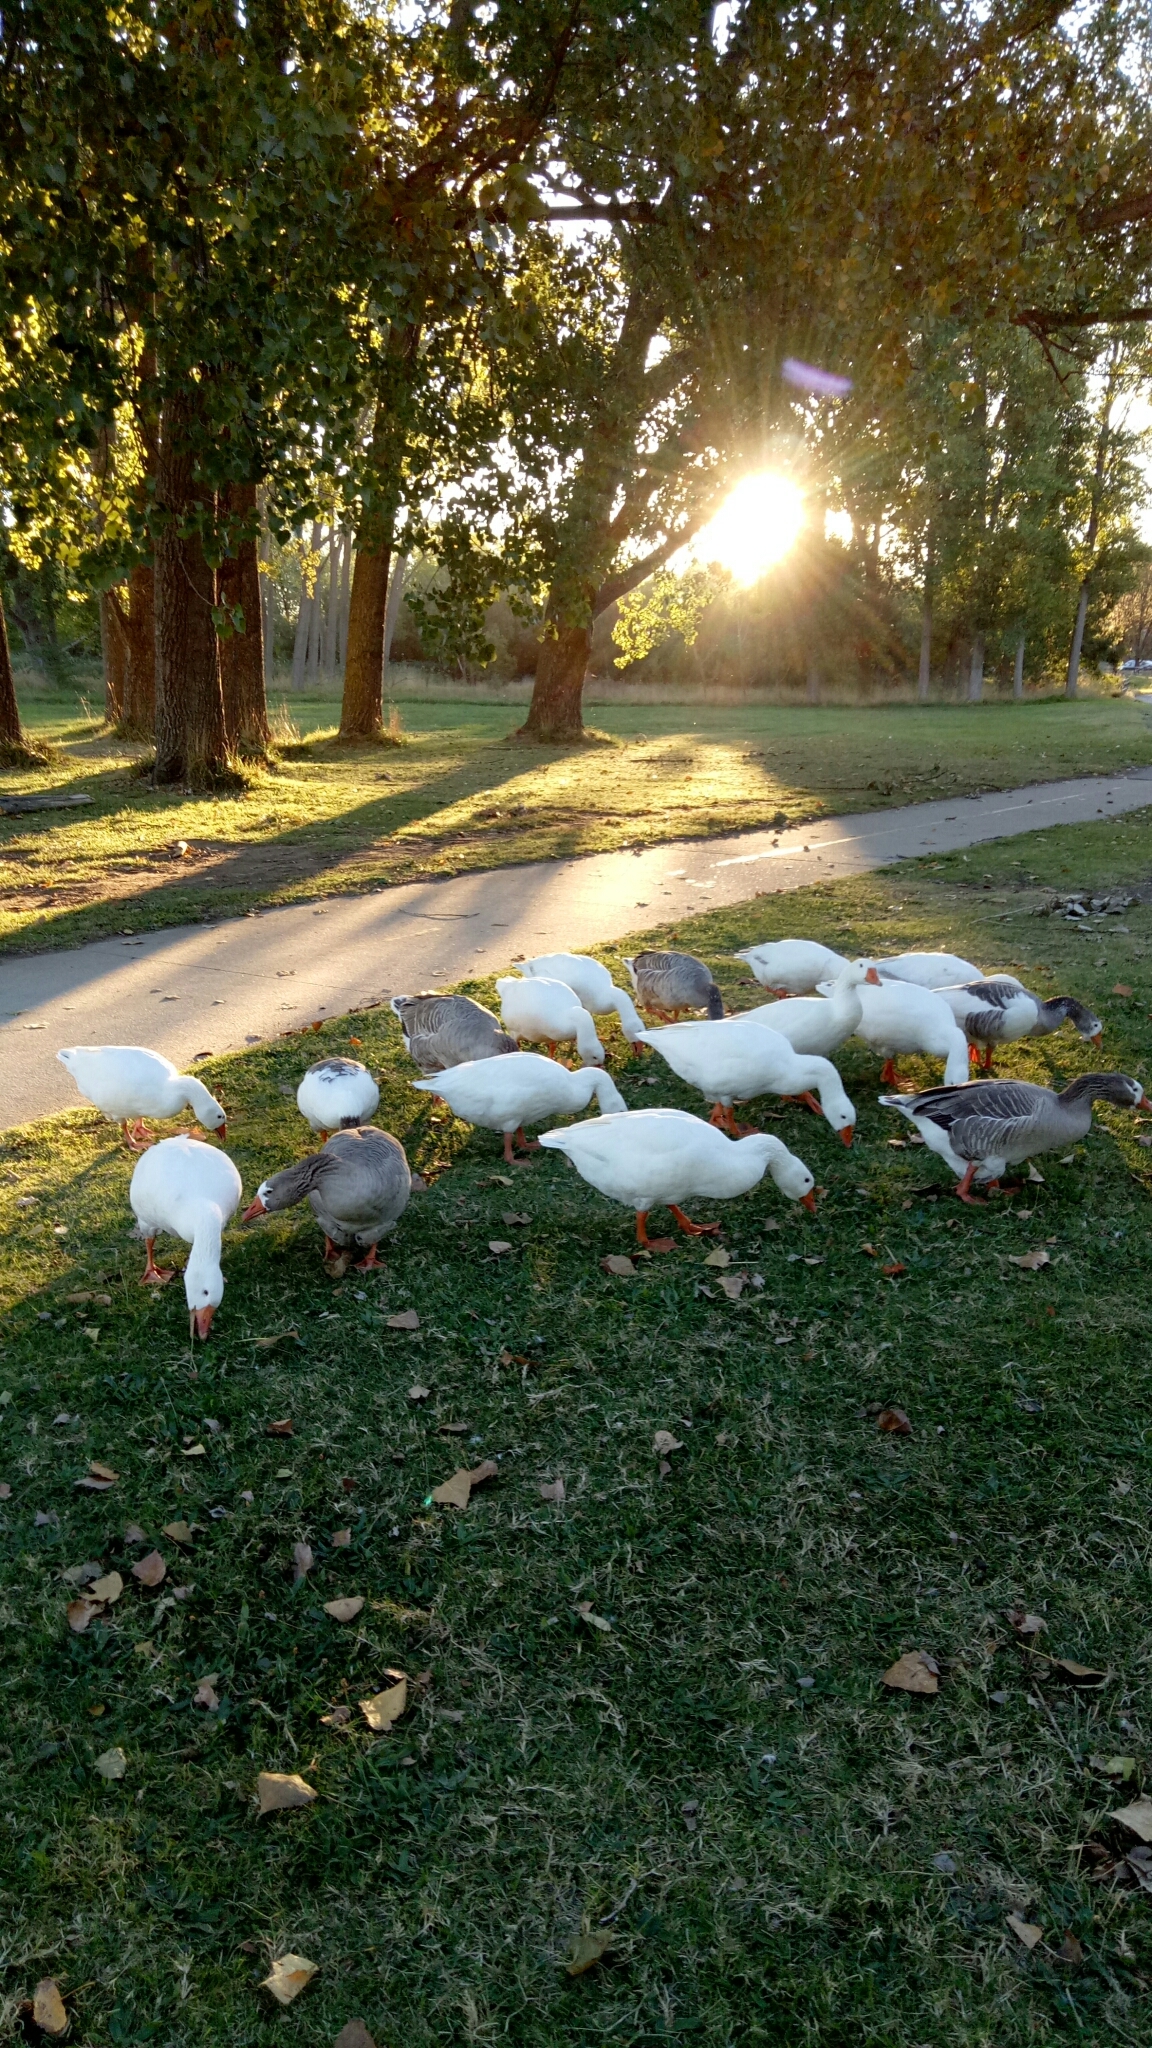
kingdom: Animalia
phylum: Chordata
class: Aves
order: Anseriformes
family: Anatidae
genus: Anser
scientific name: Anser anser
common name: Greylag goose
